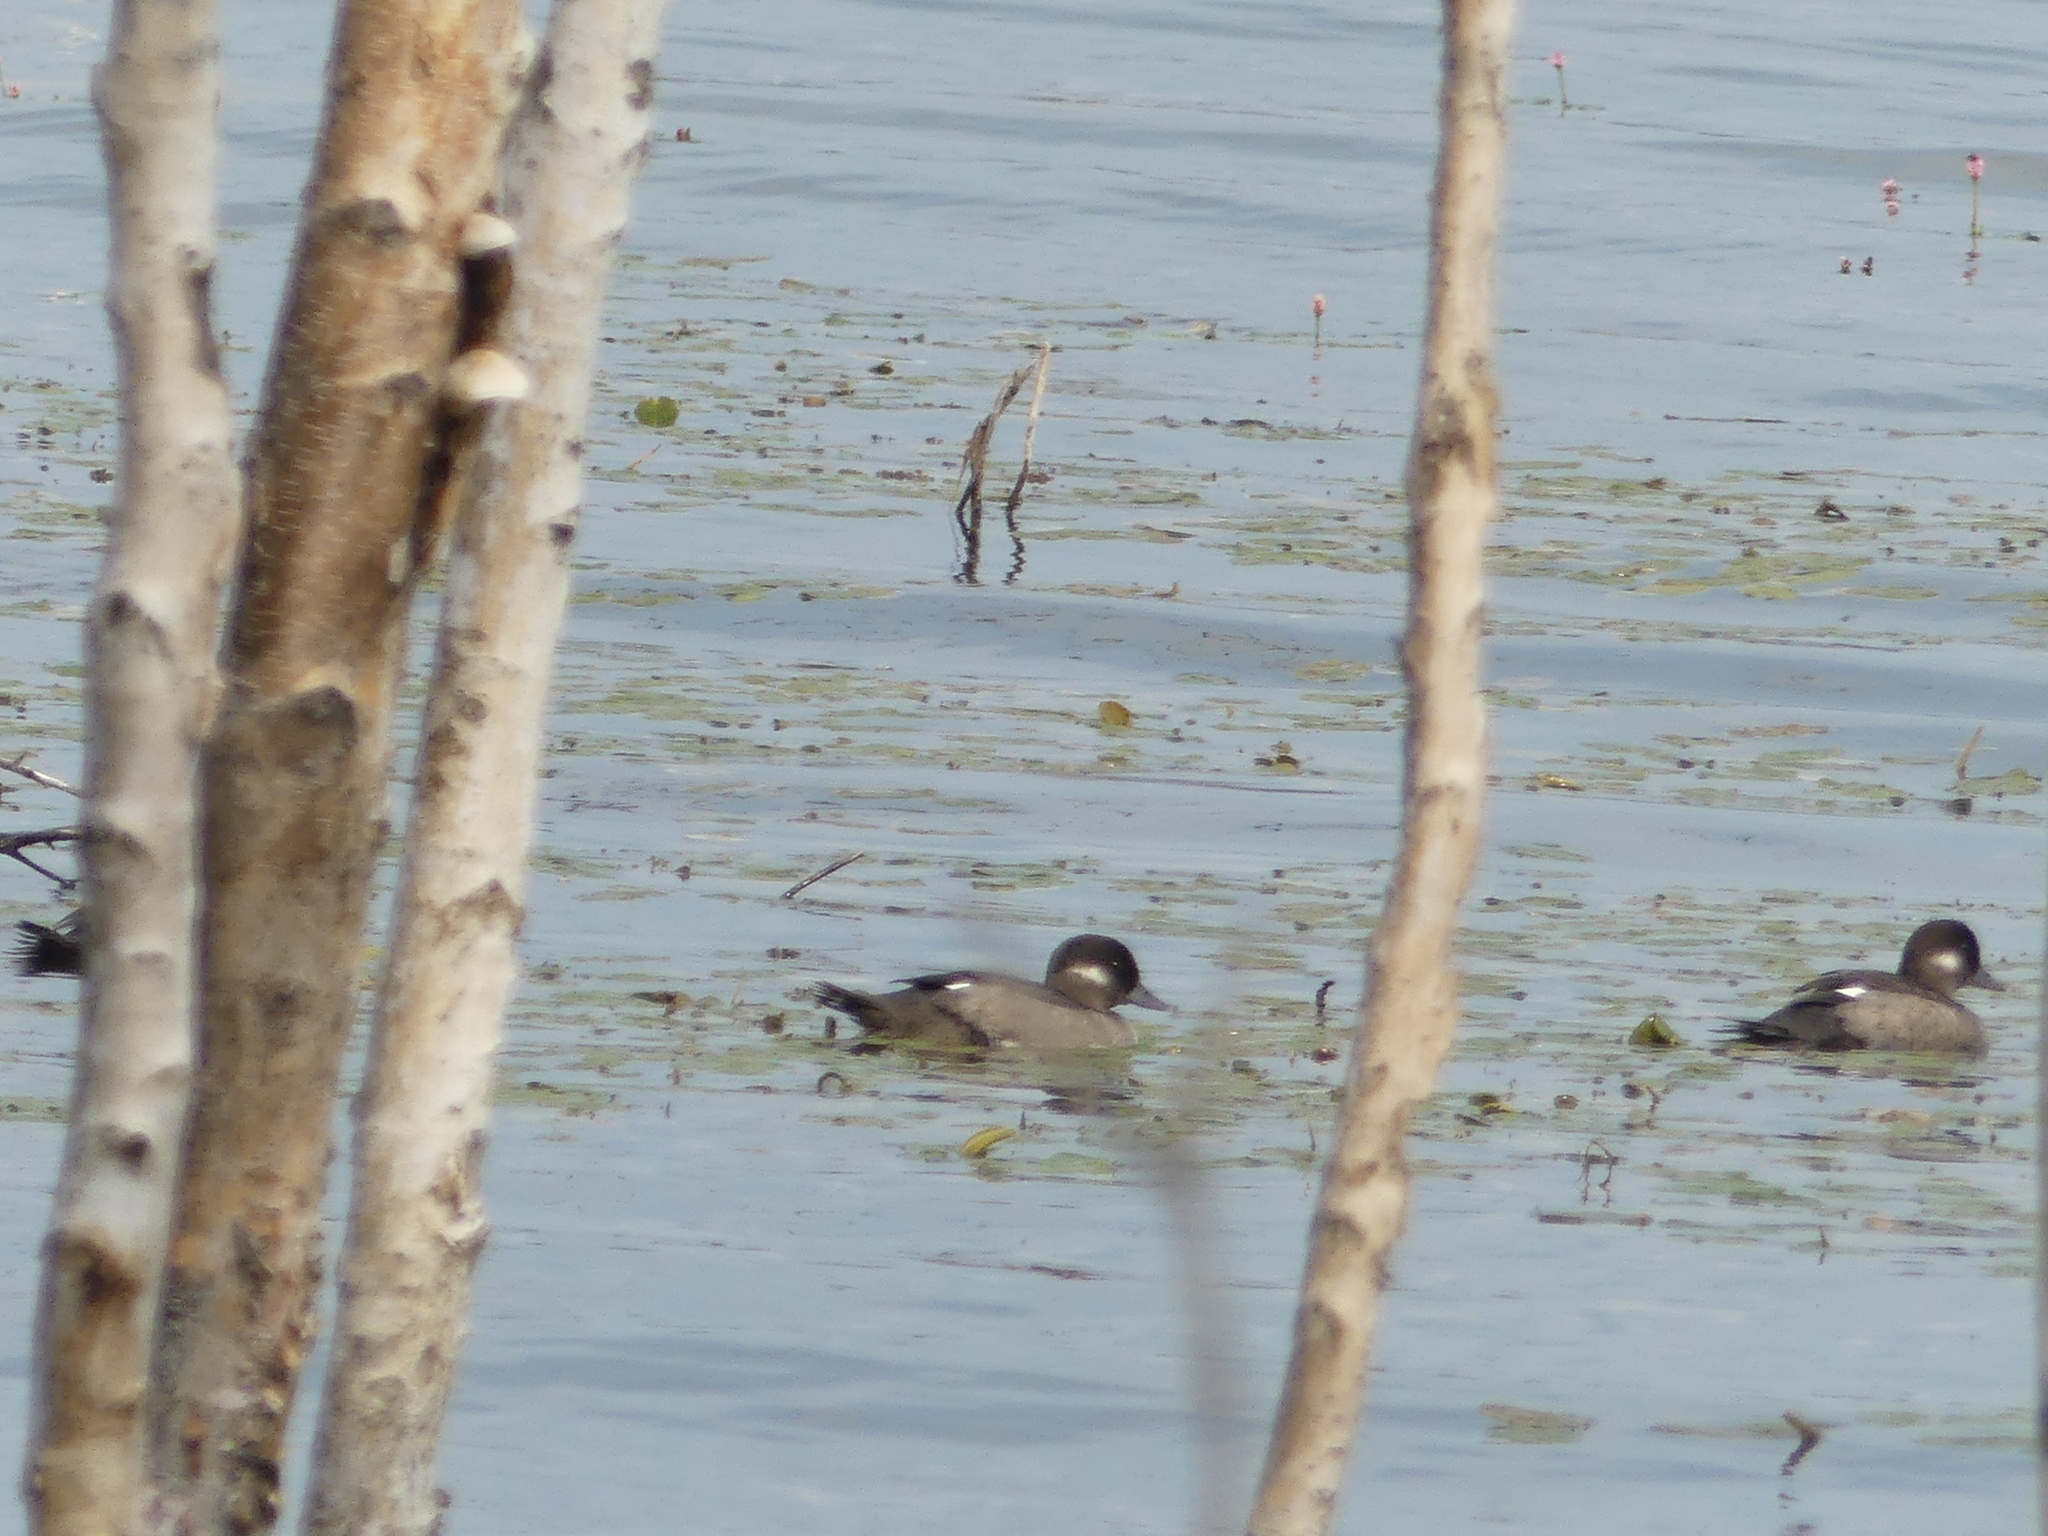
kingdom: Animalia
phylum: Chordata
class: Aves
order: Anseriformes
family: Anatidae
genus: Bucephala
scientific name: Bucephala albeola
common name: Bufflehead
